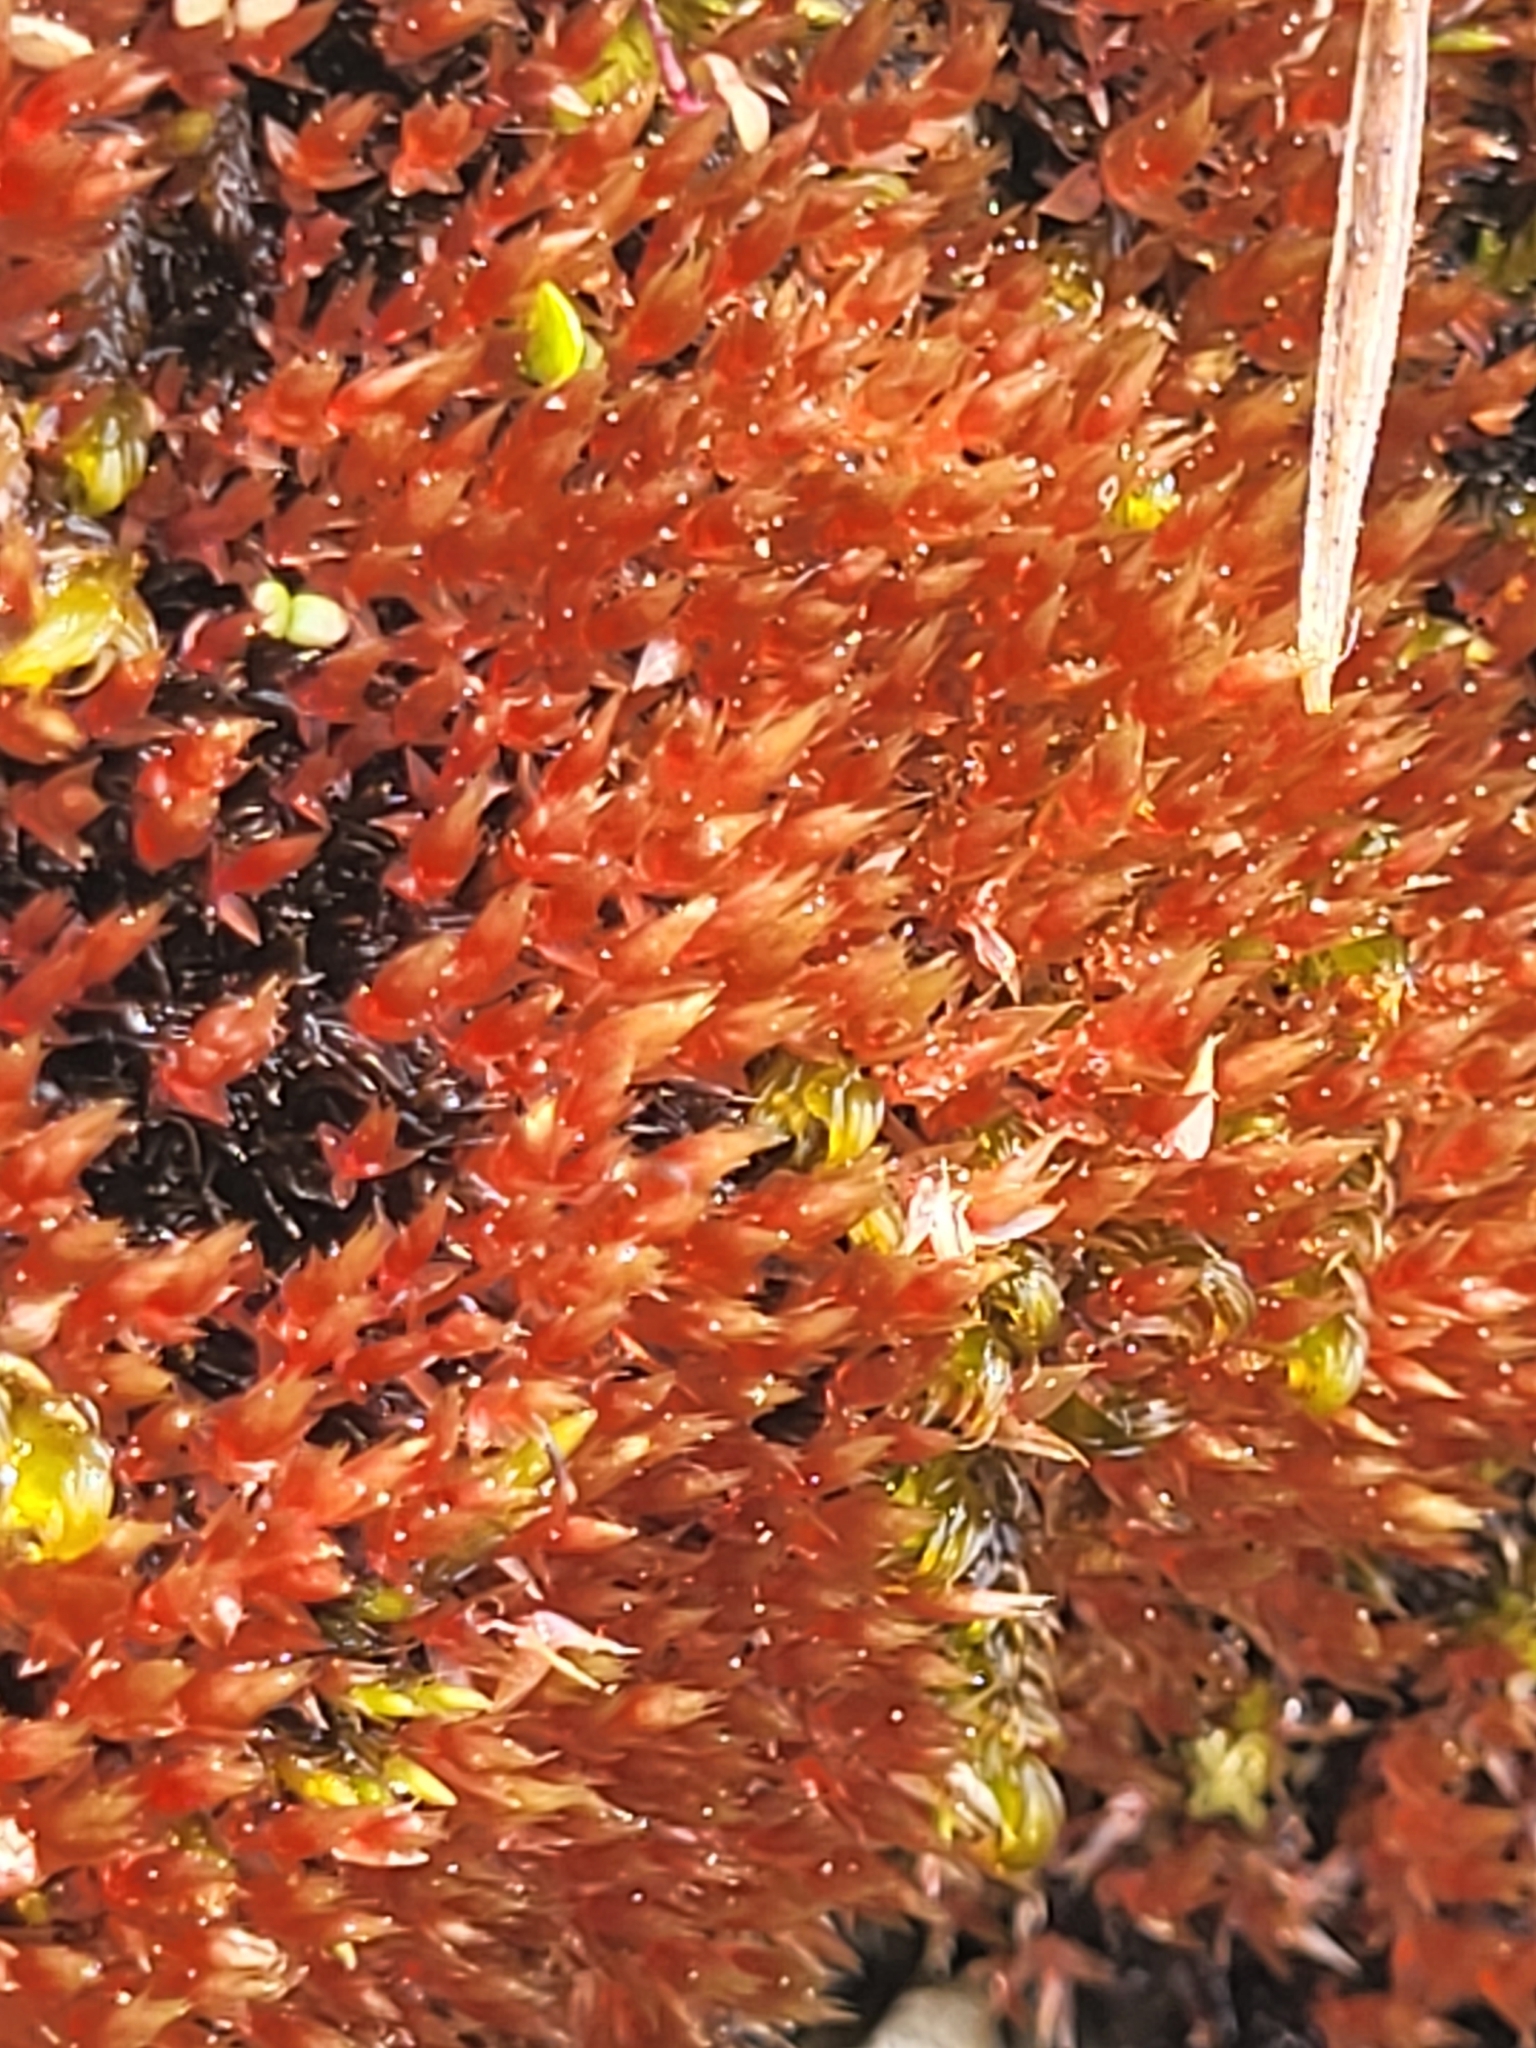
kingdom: Plantae
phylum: Bryophyta
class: Bryopsida
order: Bryales
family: Bryaceae
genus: Ptychostomum
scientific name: Ptychostomum pallens
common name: Pale thread-moss
